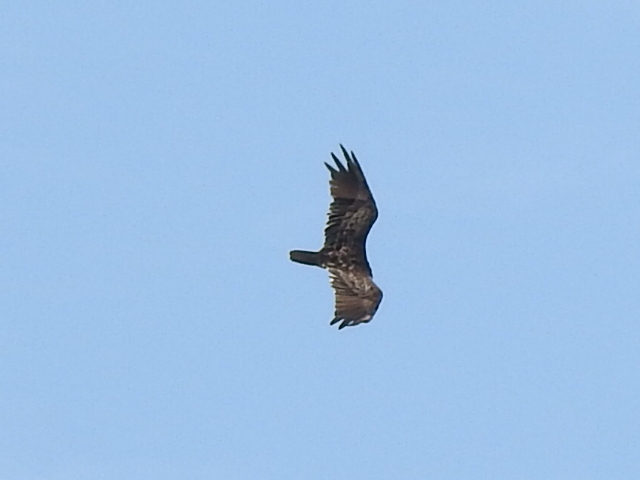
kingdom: Animalia
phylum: Chordata
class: Aves
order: Accipitriformes
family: Cathartidae
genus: Cathartes
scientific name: Cathartes aura
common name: Turkey vulture
